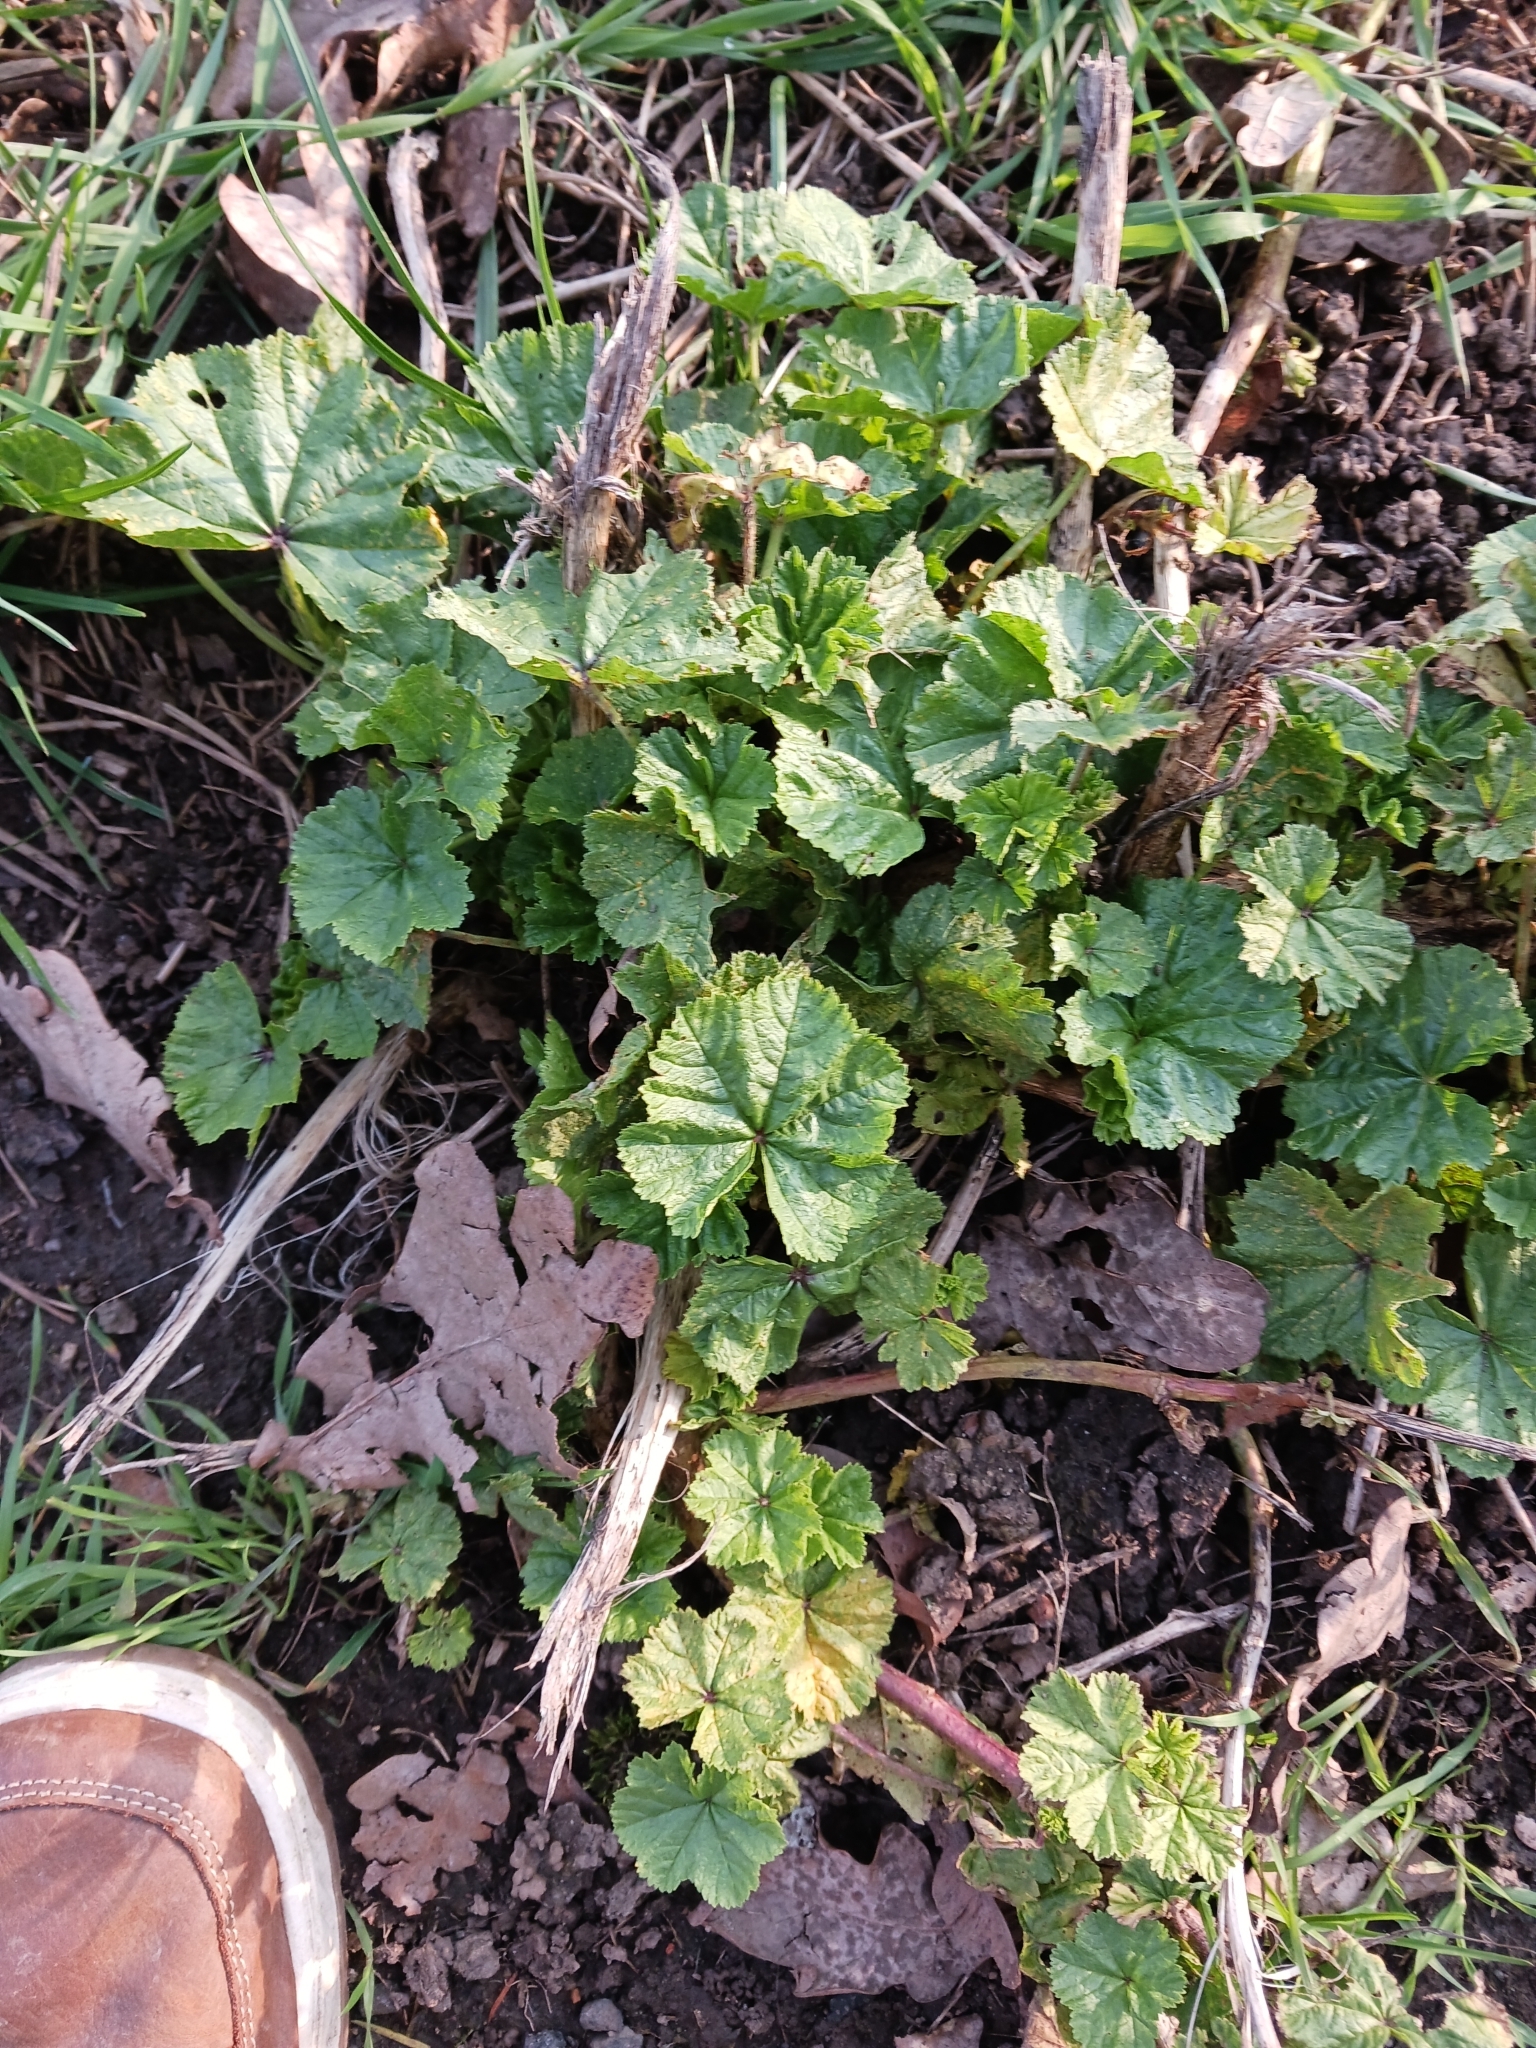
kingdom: Plantae
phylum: Tracheophyta
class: Magnoliopsida
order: Malvales
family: Malvaceae
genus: Malva
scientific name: Malva
